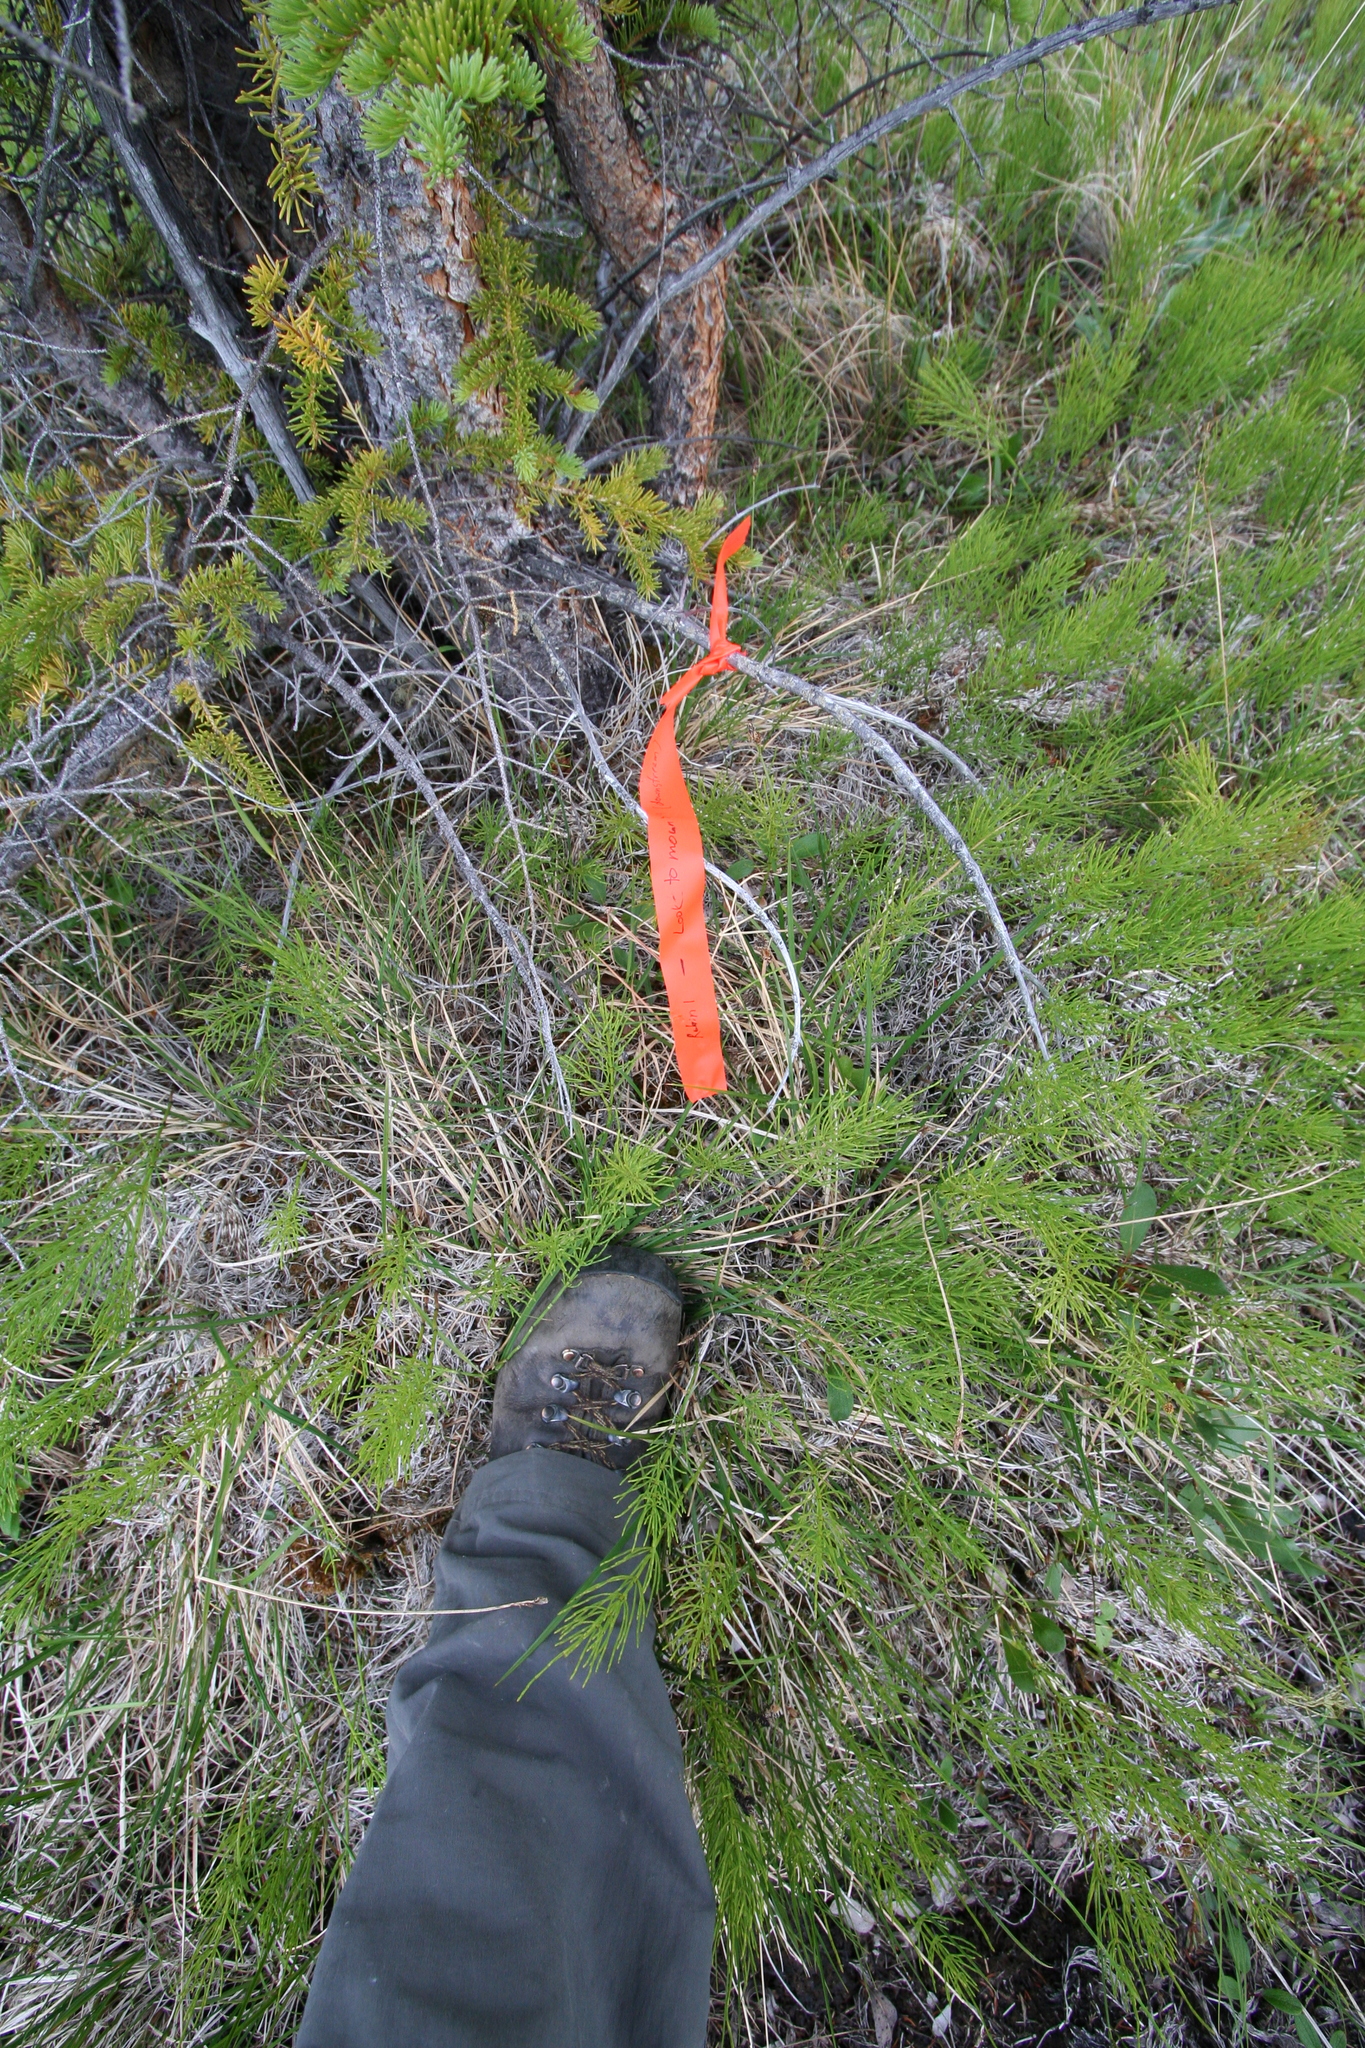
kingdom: Plantae
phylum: Tracheophyta
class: Polypodiopsida
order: Equisetales
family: Equisetaceae
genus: Equisetum
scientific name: Equisetum arvense
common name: Field horsetail
